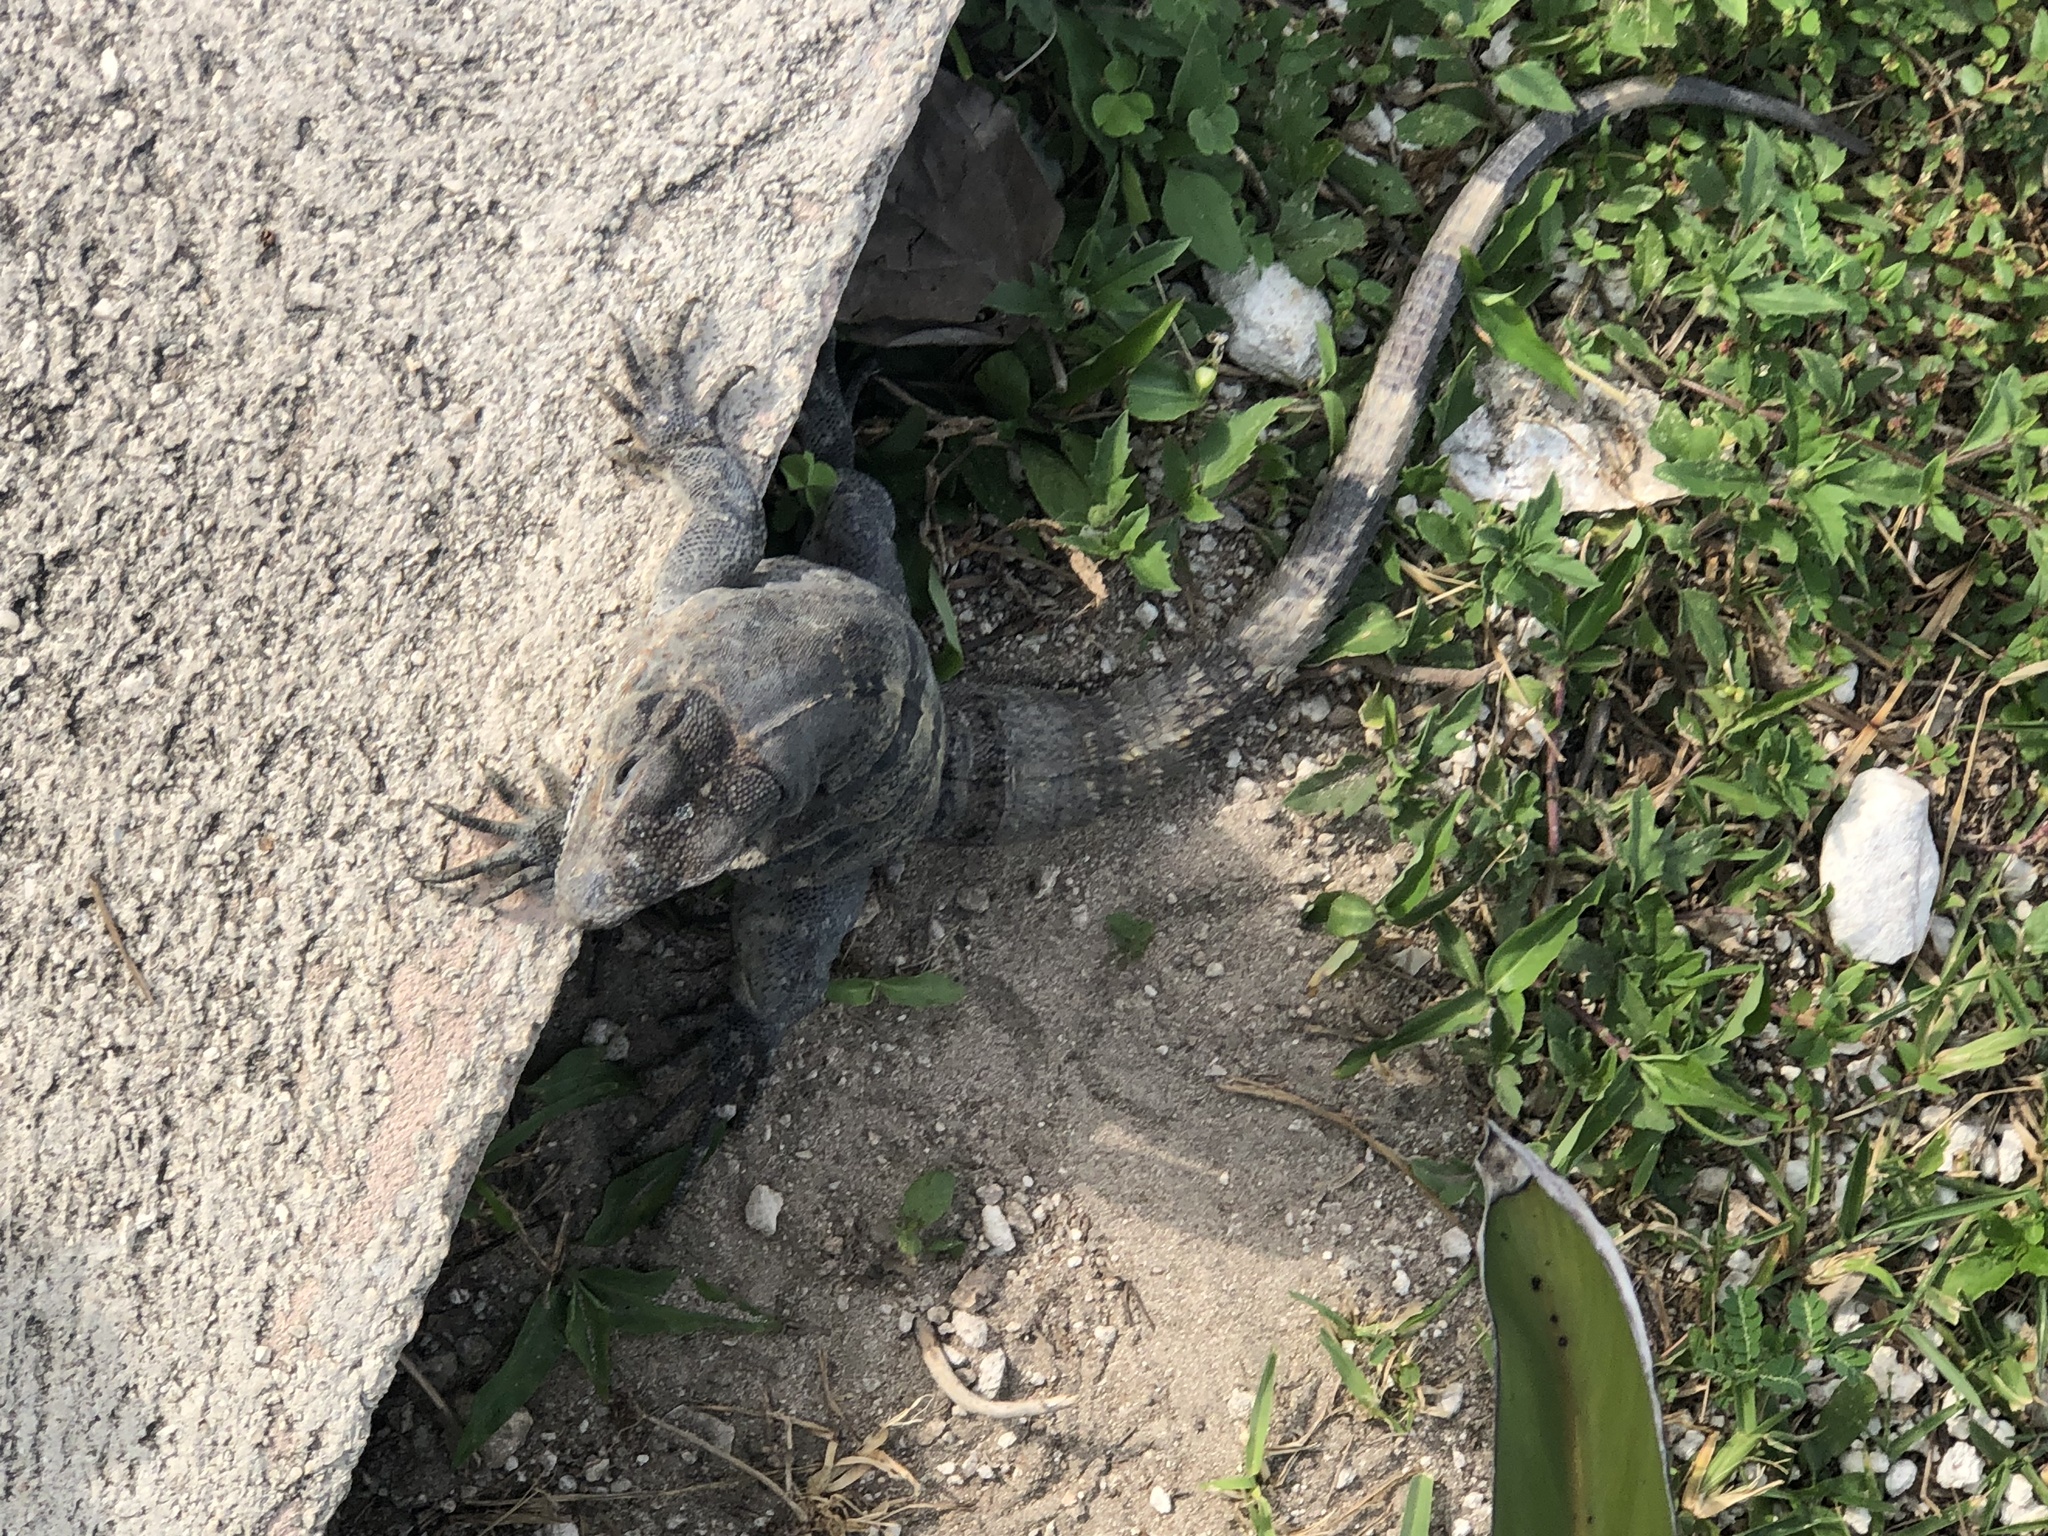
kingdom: Animalia
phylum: Chordata
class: Squamata
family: Iguanidae
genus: Ctenosaura
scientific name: Ctenosaura similis
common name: Black spiny-tailed iguana
